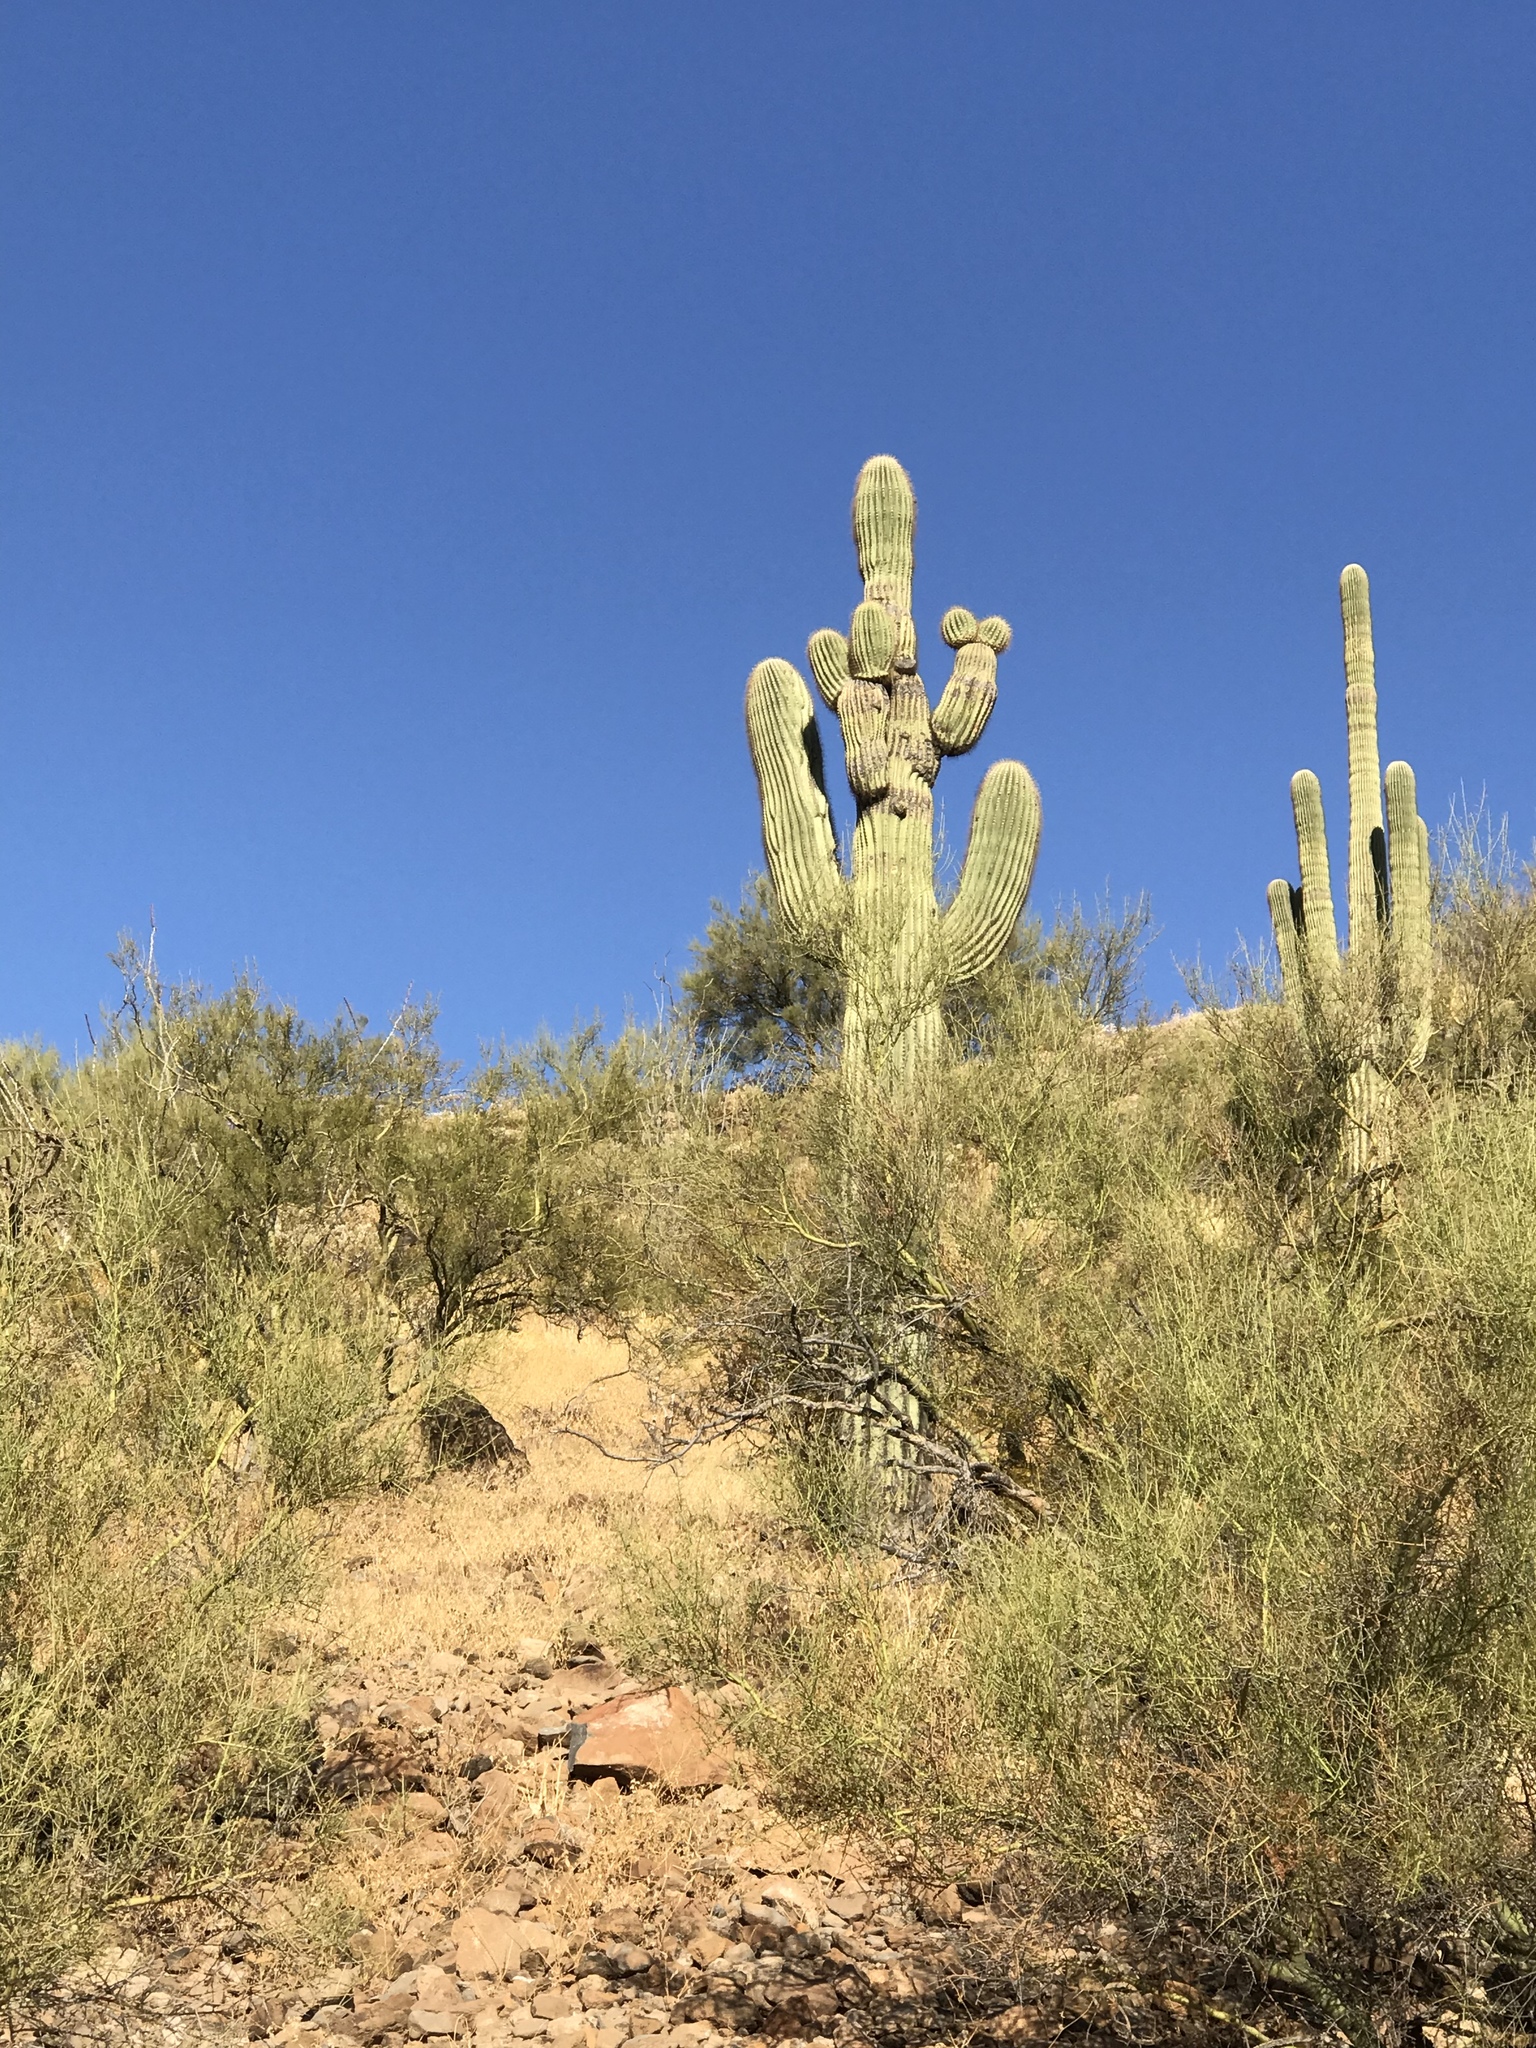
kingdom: Plantae
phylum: Tracheophyta
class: Magnoliopsida
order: Caryophyllales
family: Cactaceae
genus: Carnegiea
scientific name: Carnegiea gigantea
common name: Saguaro
